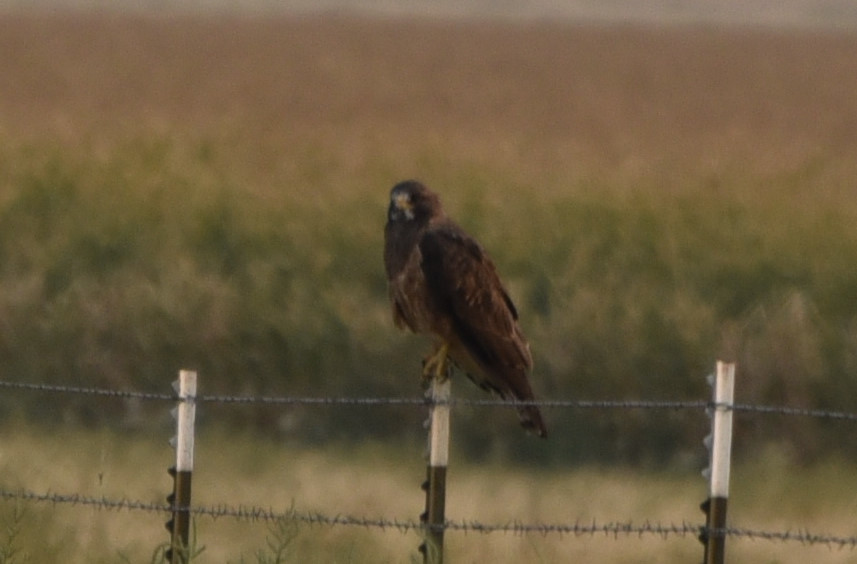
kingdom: Animalia
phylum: Chordata
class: Aves
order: Accipitriformes
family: Accipitridae
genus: Buteo
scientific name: Buteo swainsoni
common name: Swainson's hawk
